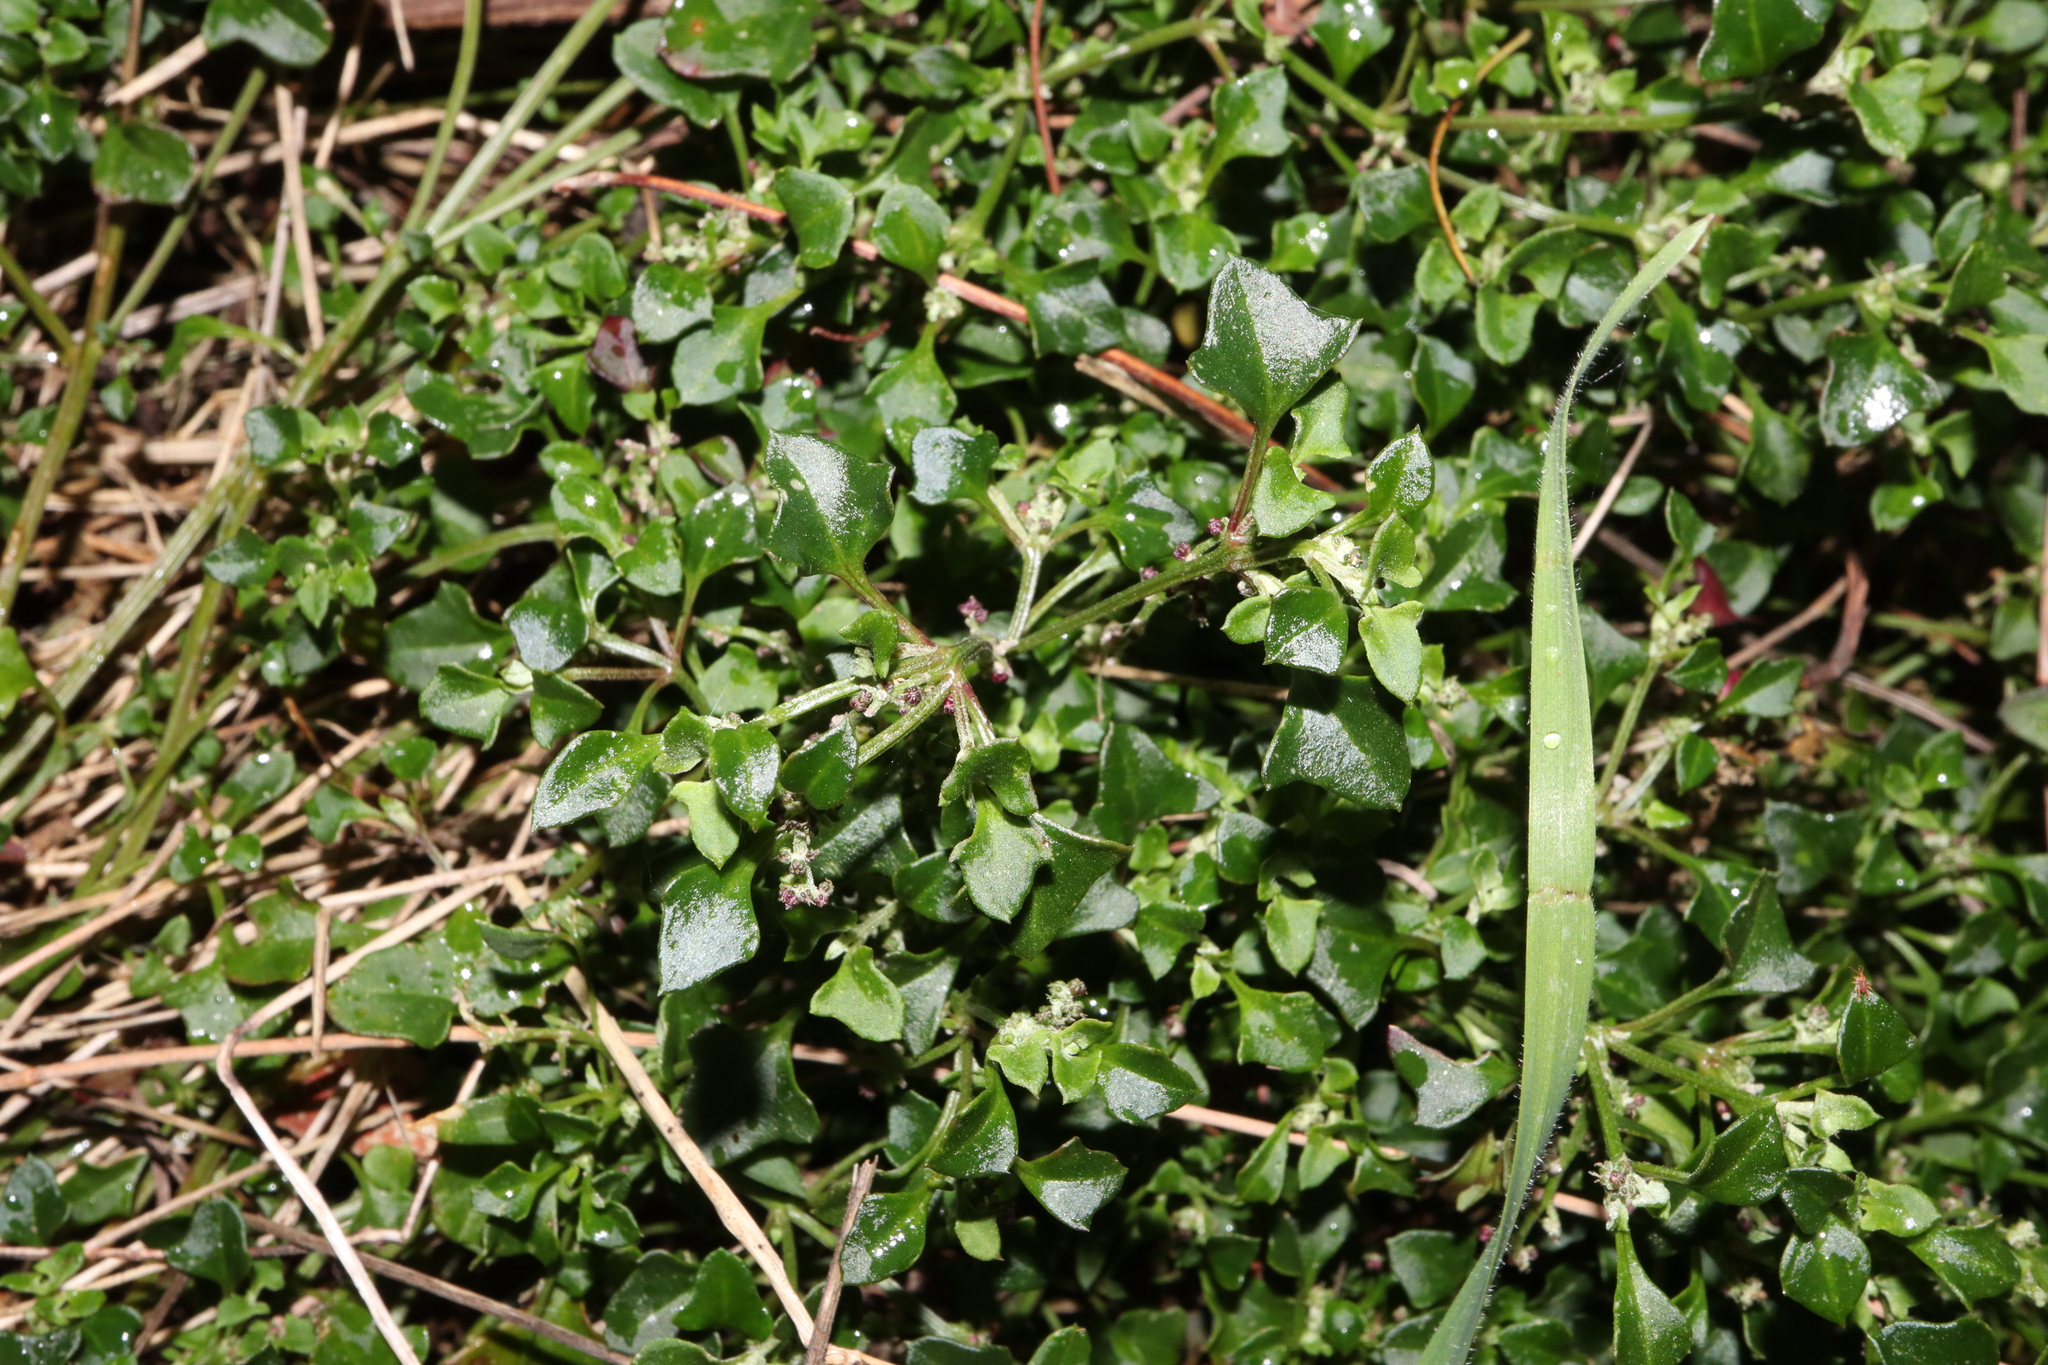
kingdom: Plantae
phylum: Tracheophyta
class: Magnoliopsida
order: Caryophyllales
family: Amaranthaceae
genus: Chenopodium
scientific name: Chenopodium robertianum
